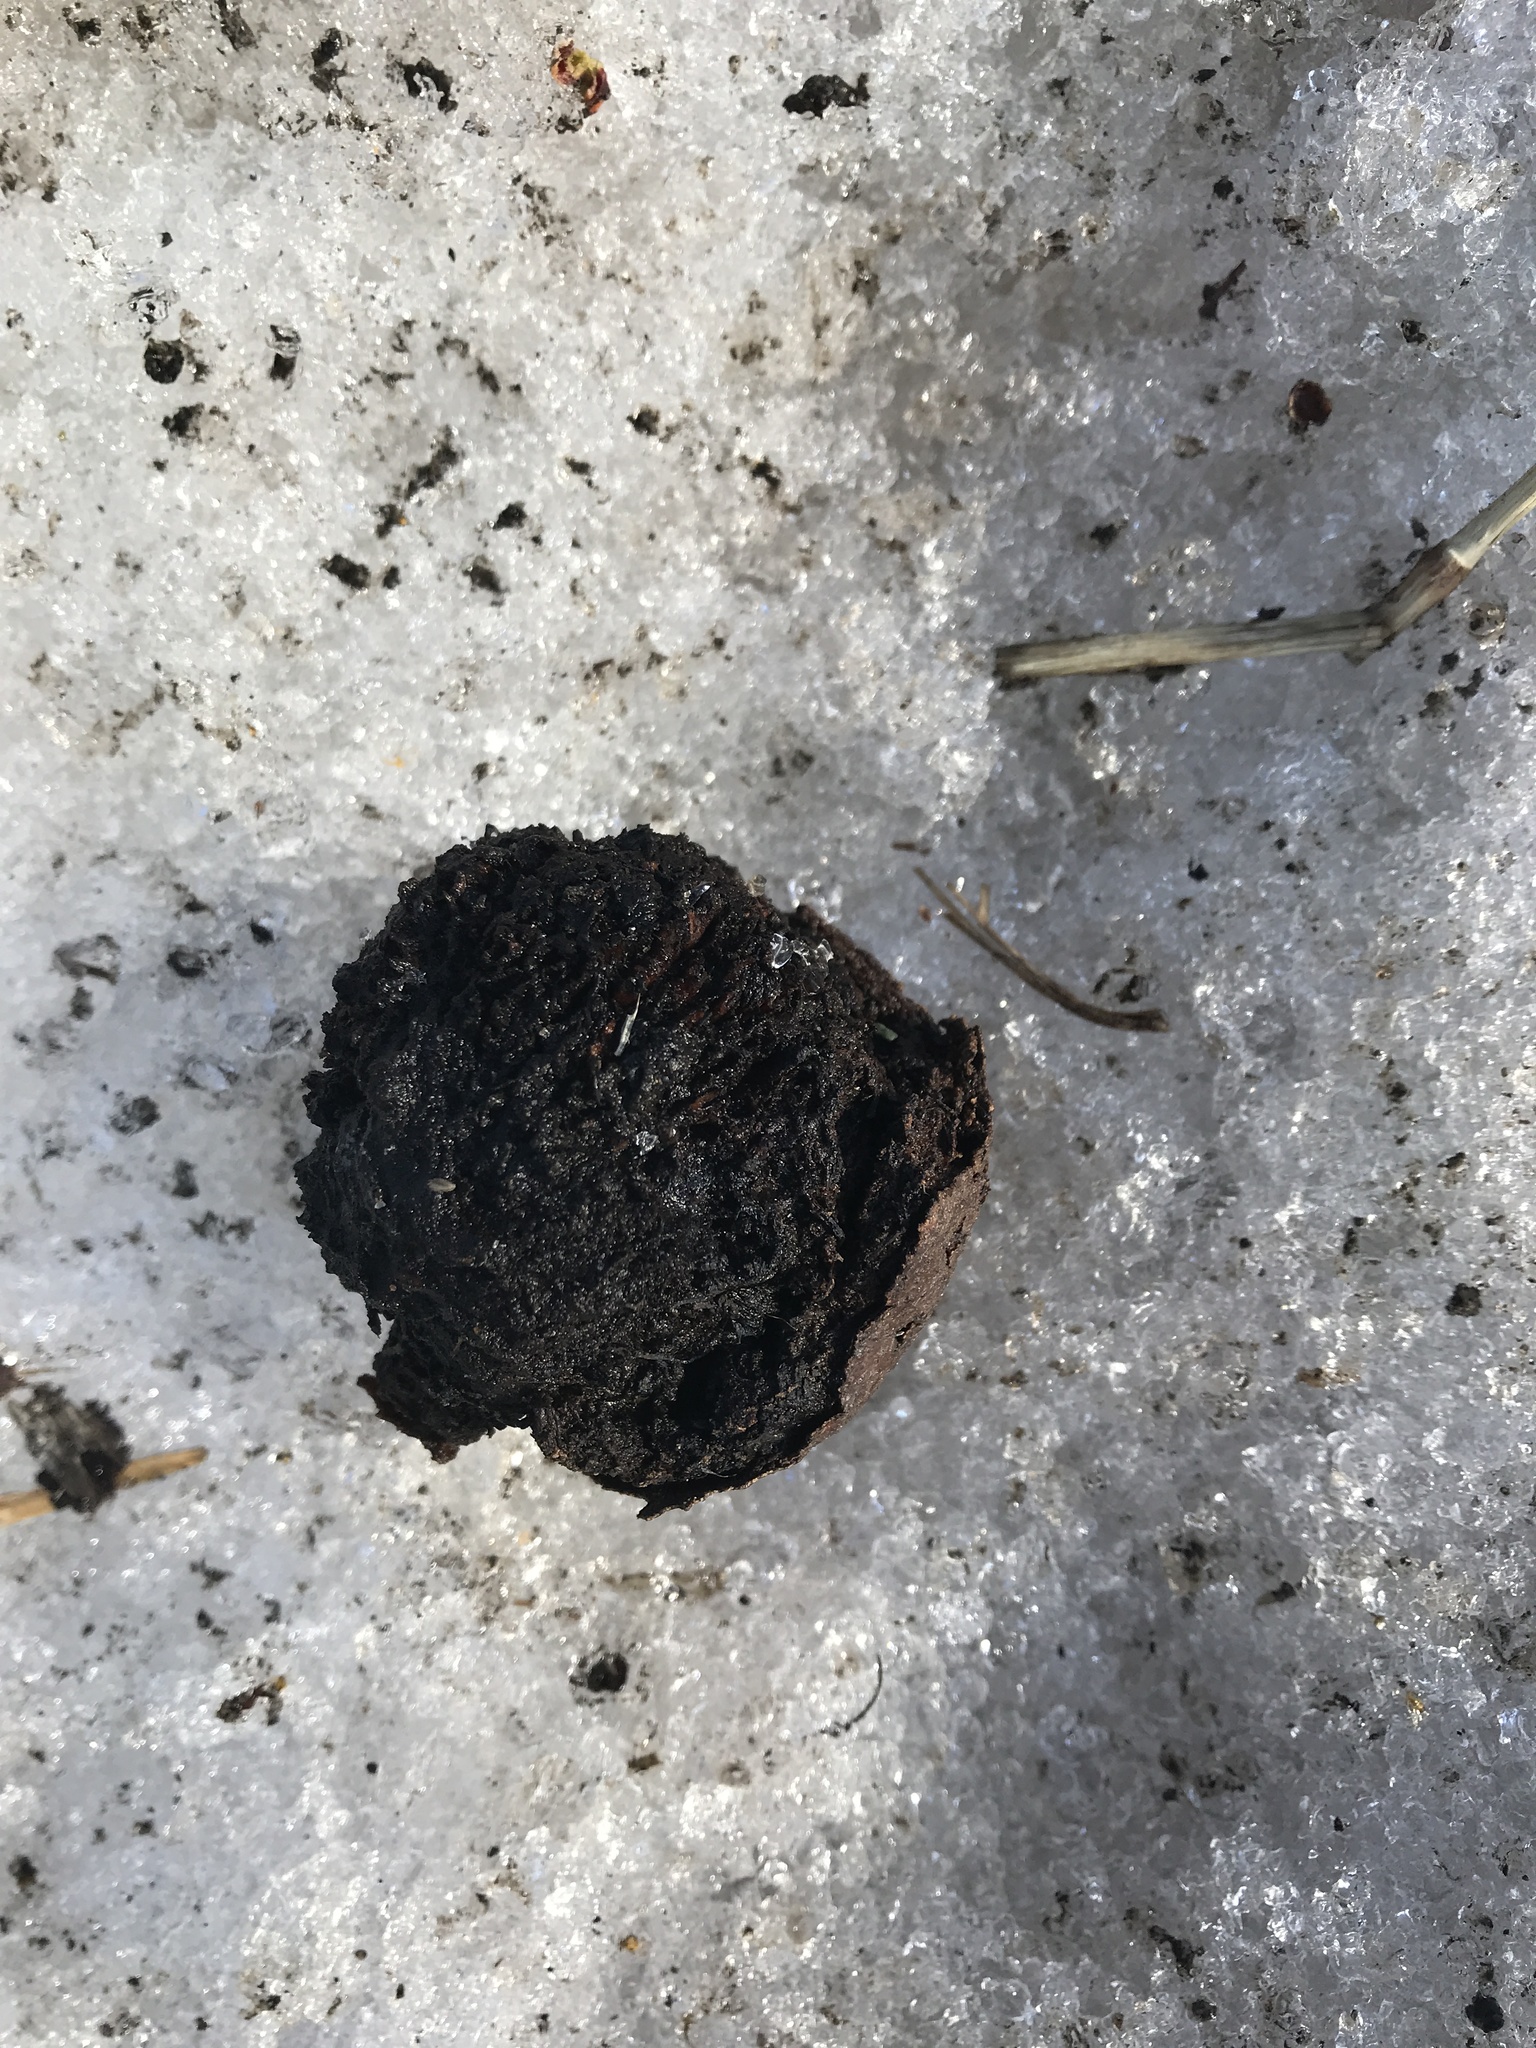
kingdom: Plantae
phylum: Tracheophyta
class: Magnoliopsida
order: Fagales
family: Juglandaceae
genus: Juglans
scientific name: Juglans nigra
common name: Black walnut
